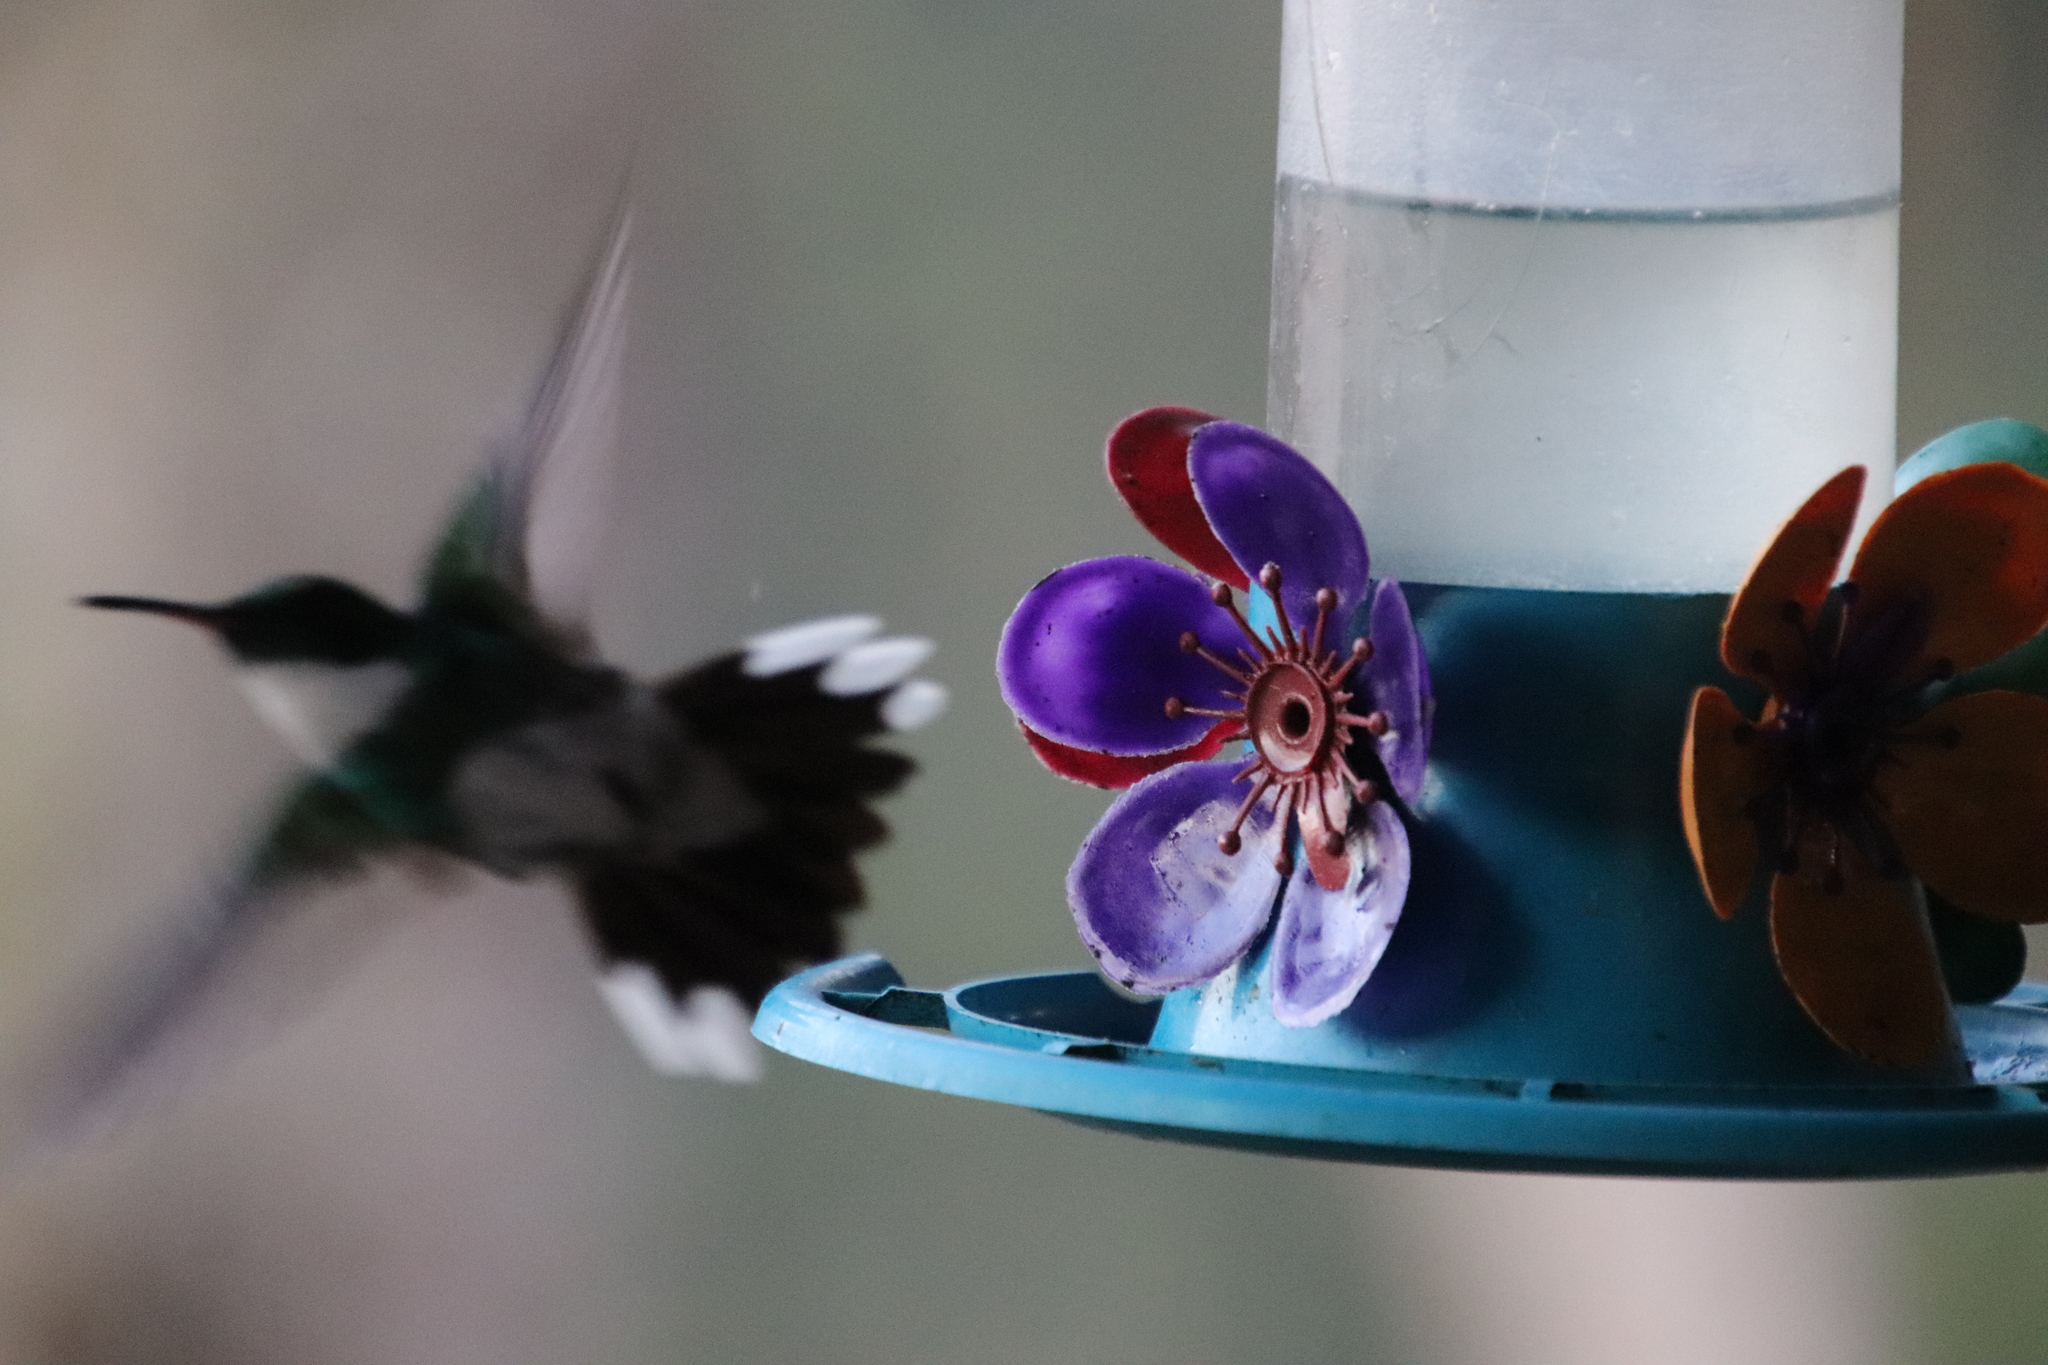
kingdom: Animalia
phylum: Chordata
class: Aves
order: Apodiformes
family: Trochilidae
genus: Leucochloris
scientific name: Leucochloris albicollis
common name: White-throated hummingbird
